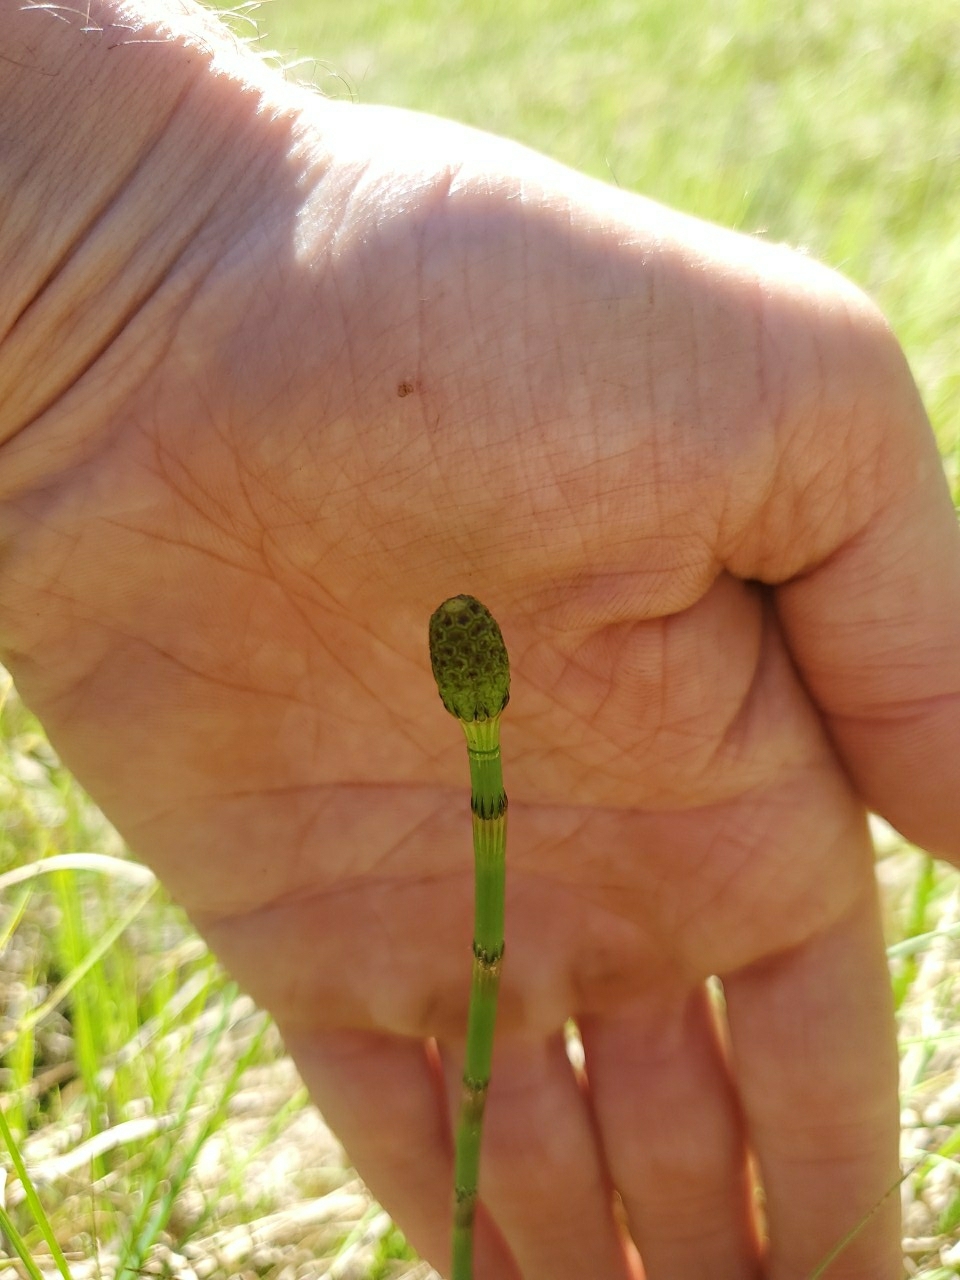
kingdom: Plantae
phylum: Tracheophyta
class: Polypodiopsida
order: Equisetales
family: Equisetaceae
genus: Equisetum
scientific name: Equisetum fluviatile
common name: Water horsetail
